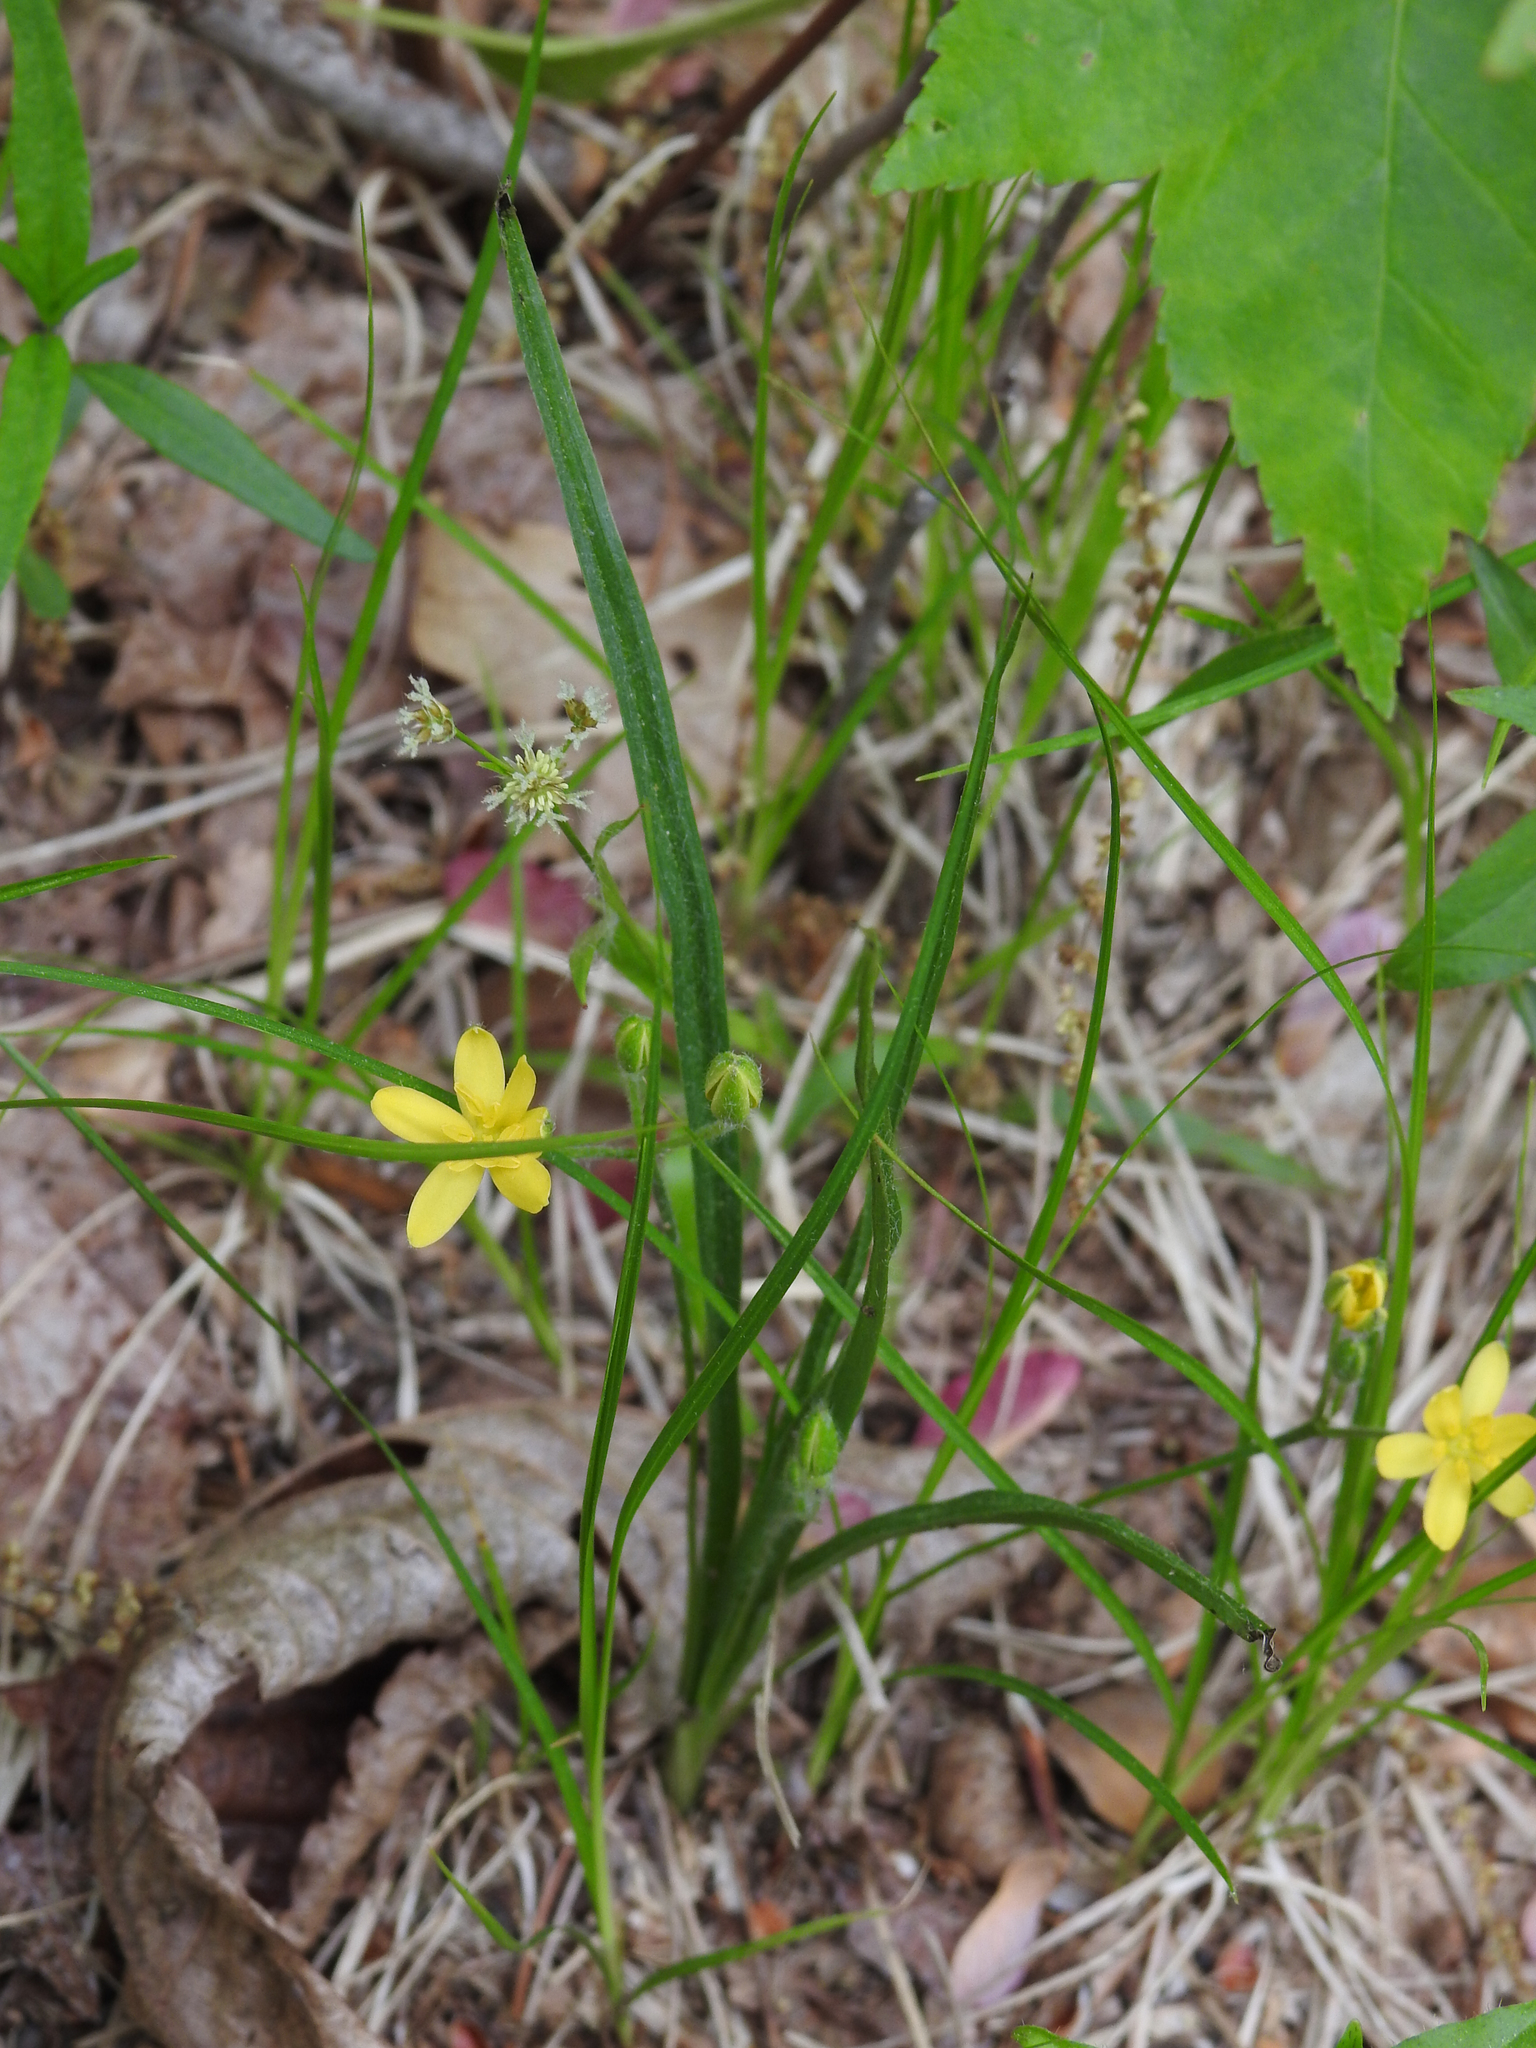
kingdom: Plantae
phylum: Tracheophyta
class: Liliopsida
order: Asparagales
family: Hypoxidaceae
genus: Hypoxis
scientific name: Hypoxis hirsuta
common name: Common goldstar
